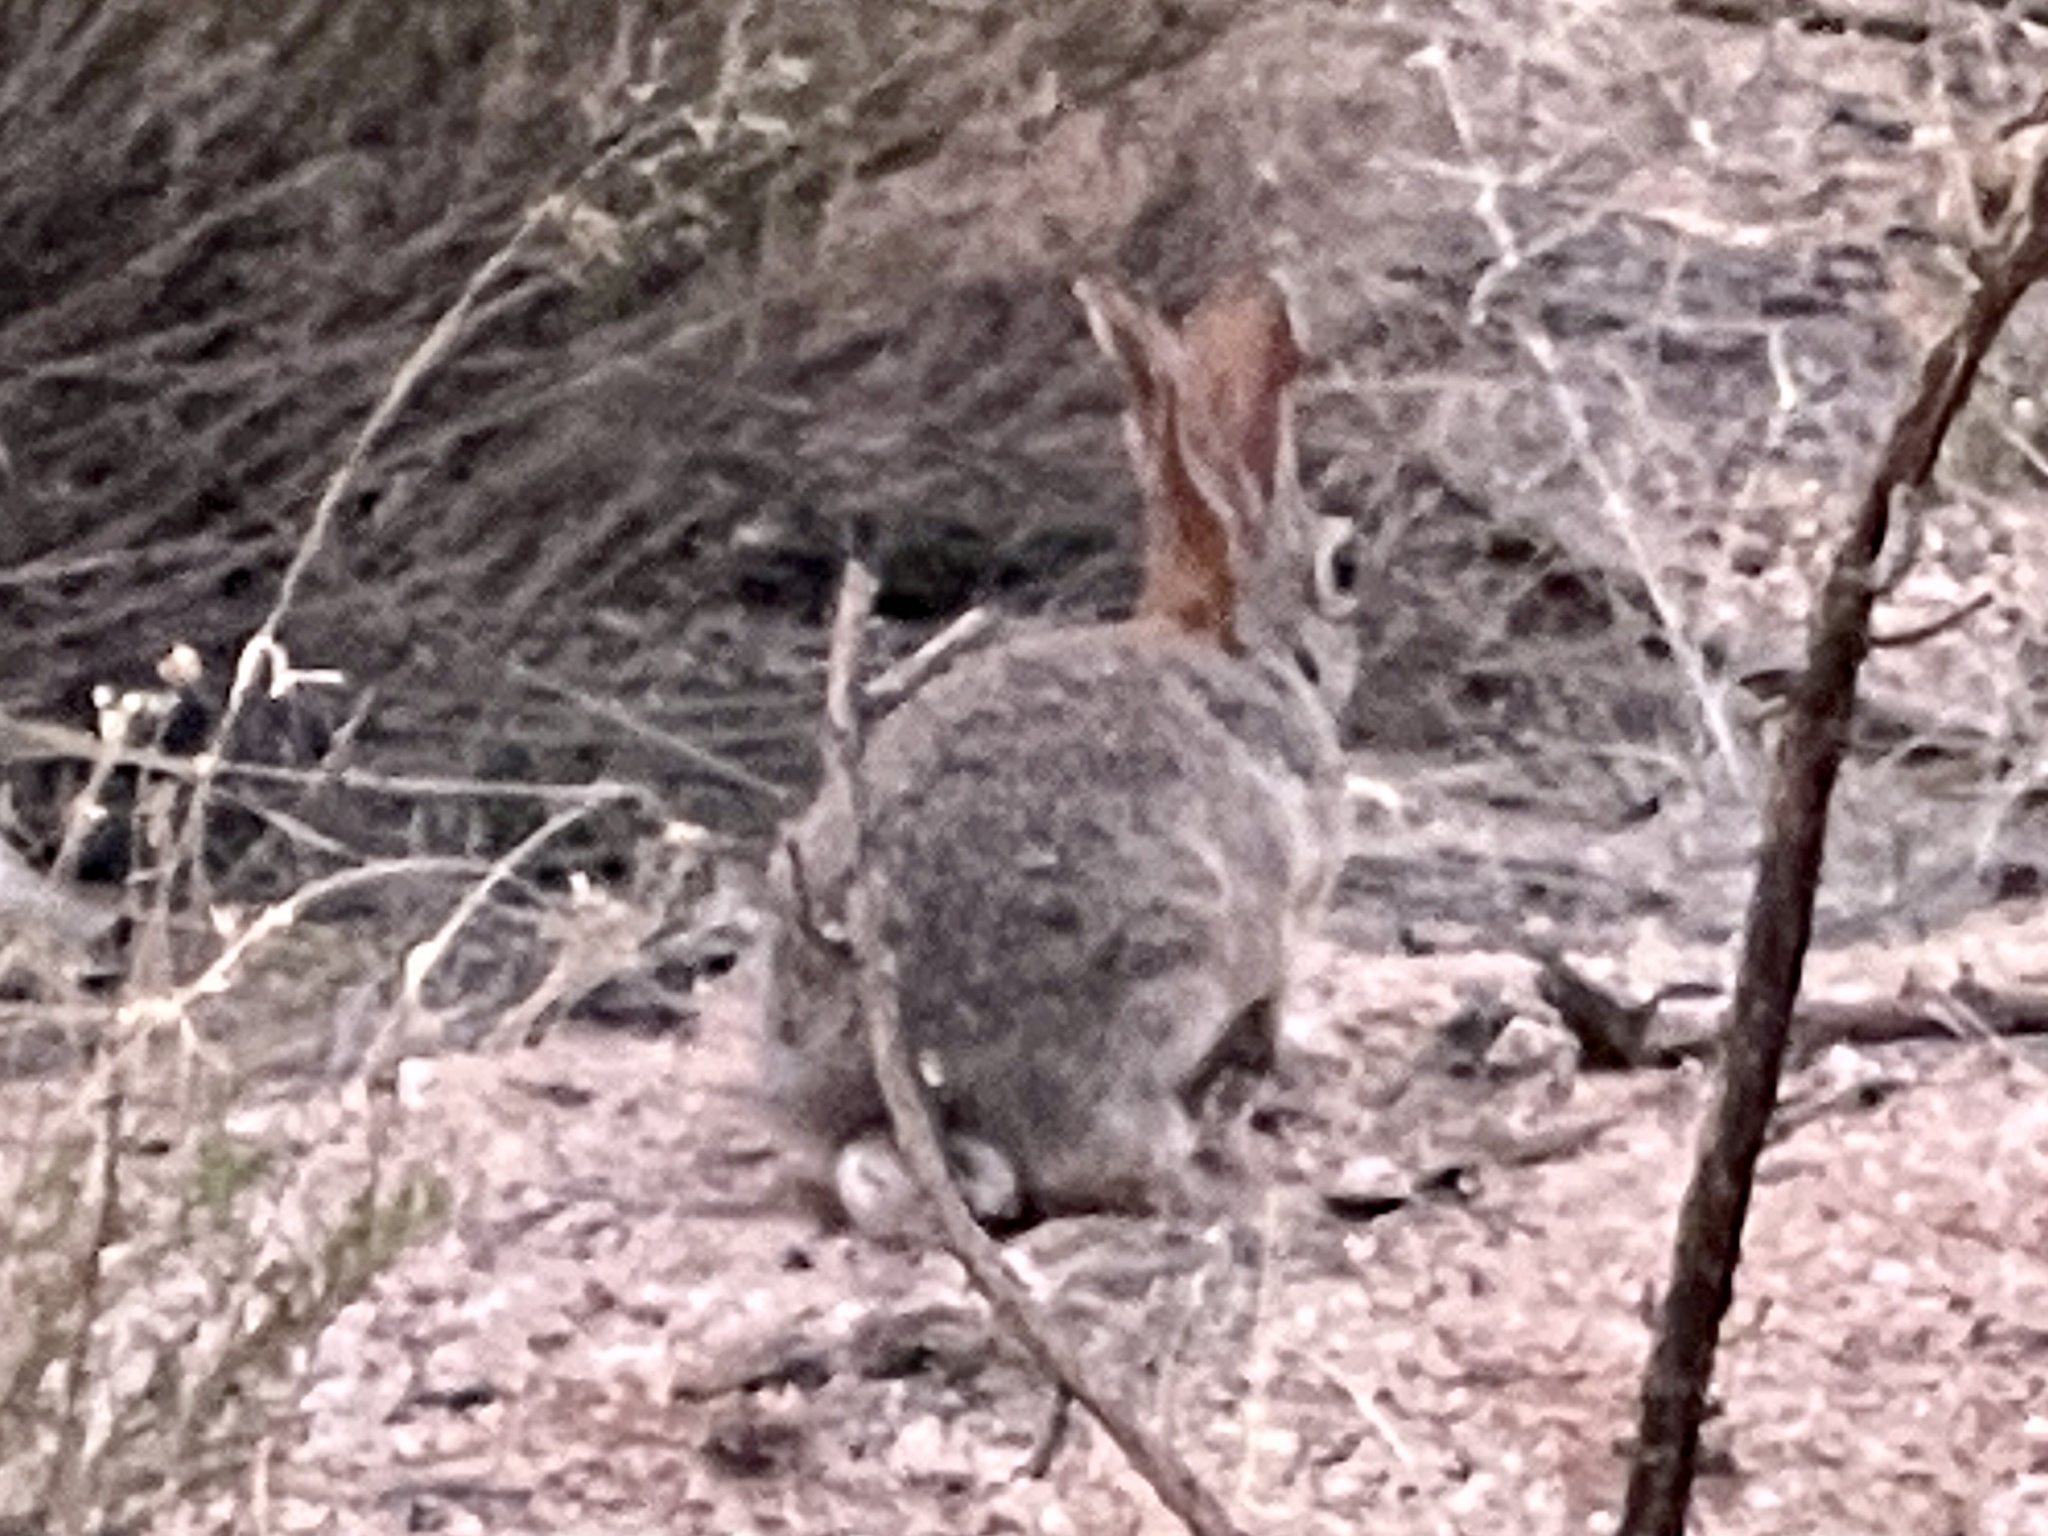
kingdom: Animalia
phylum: Chordata
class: Mammalia
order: Lagomorpha
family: Leporidae
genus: Sylvilagus
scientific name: Sylvilagus audubonii
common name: Desert cottontail
